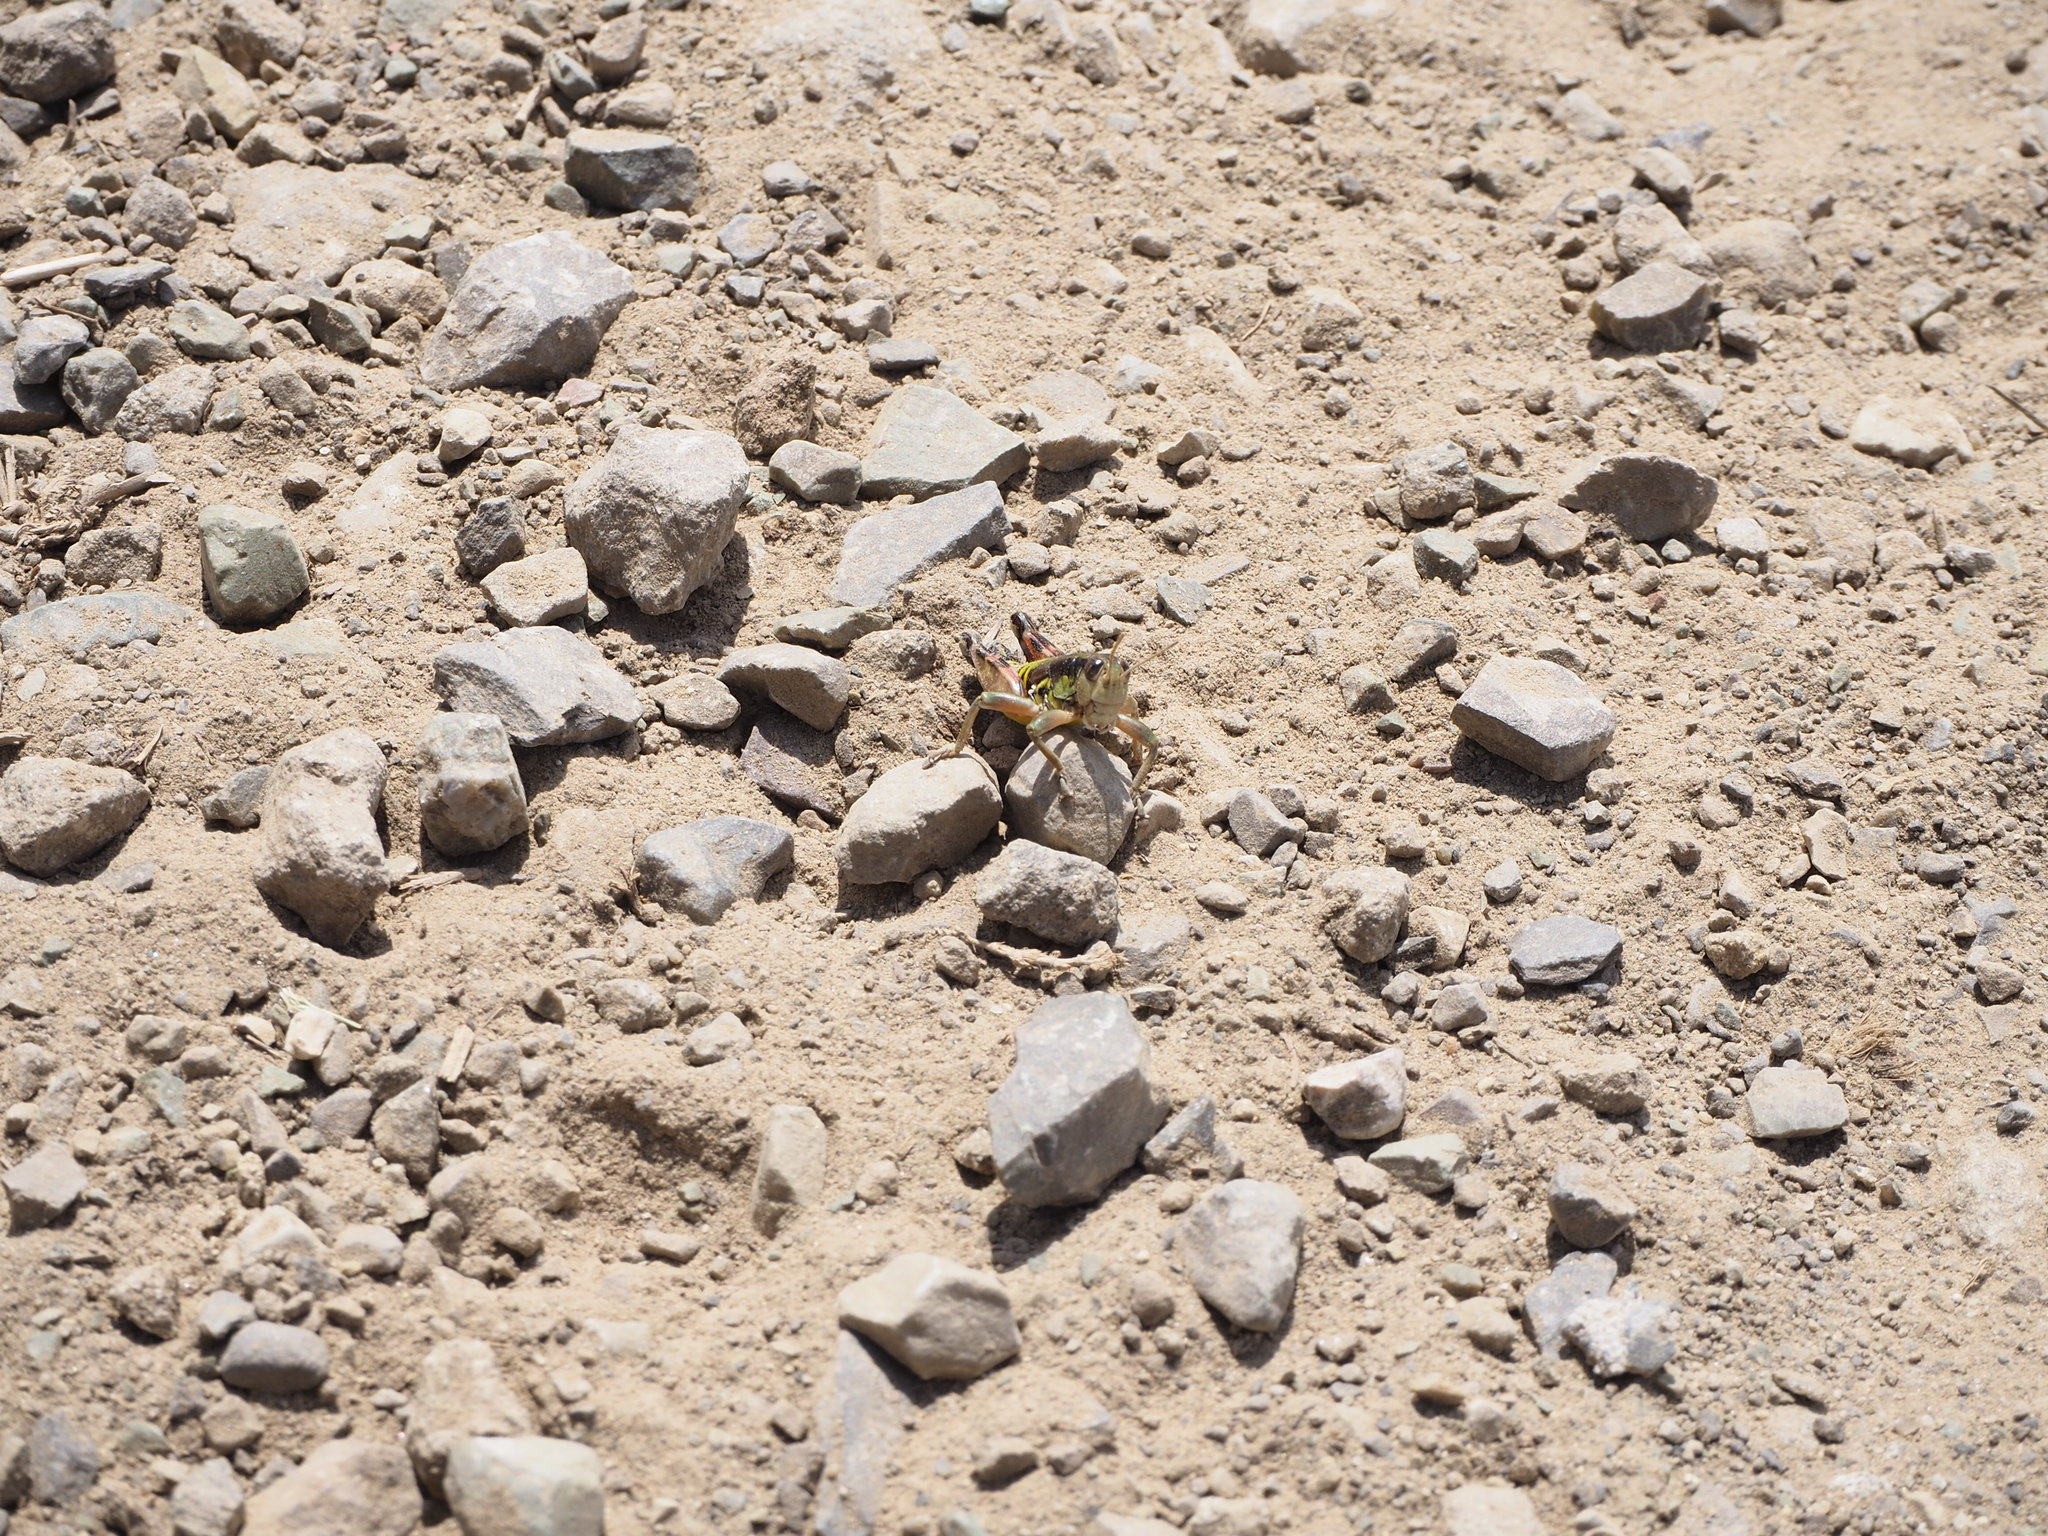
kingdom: Animalia
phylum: Arthropoda
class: Insecta
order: Orthoptera
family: Acrididae
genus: Podisma
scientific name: Podisma emiliae
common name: Emilia mountain grasshopper
